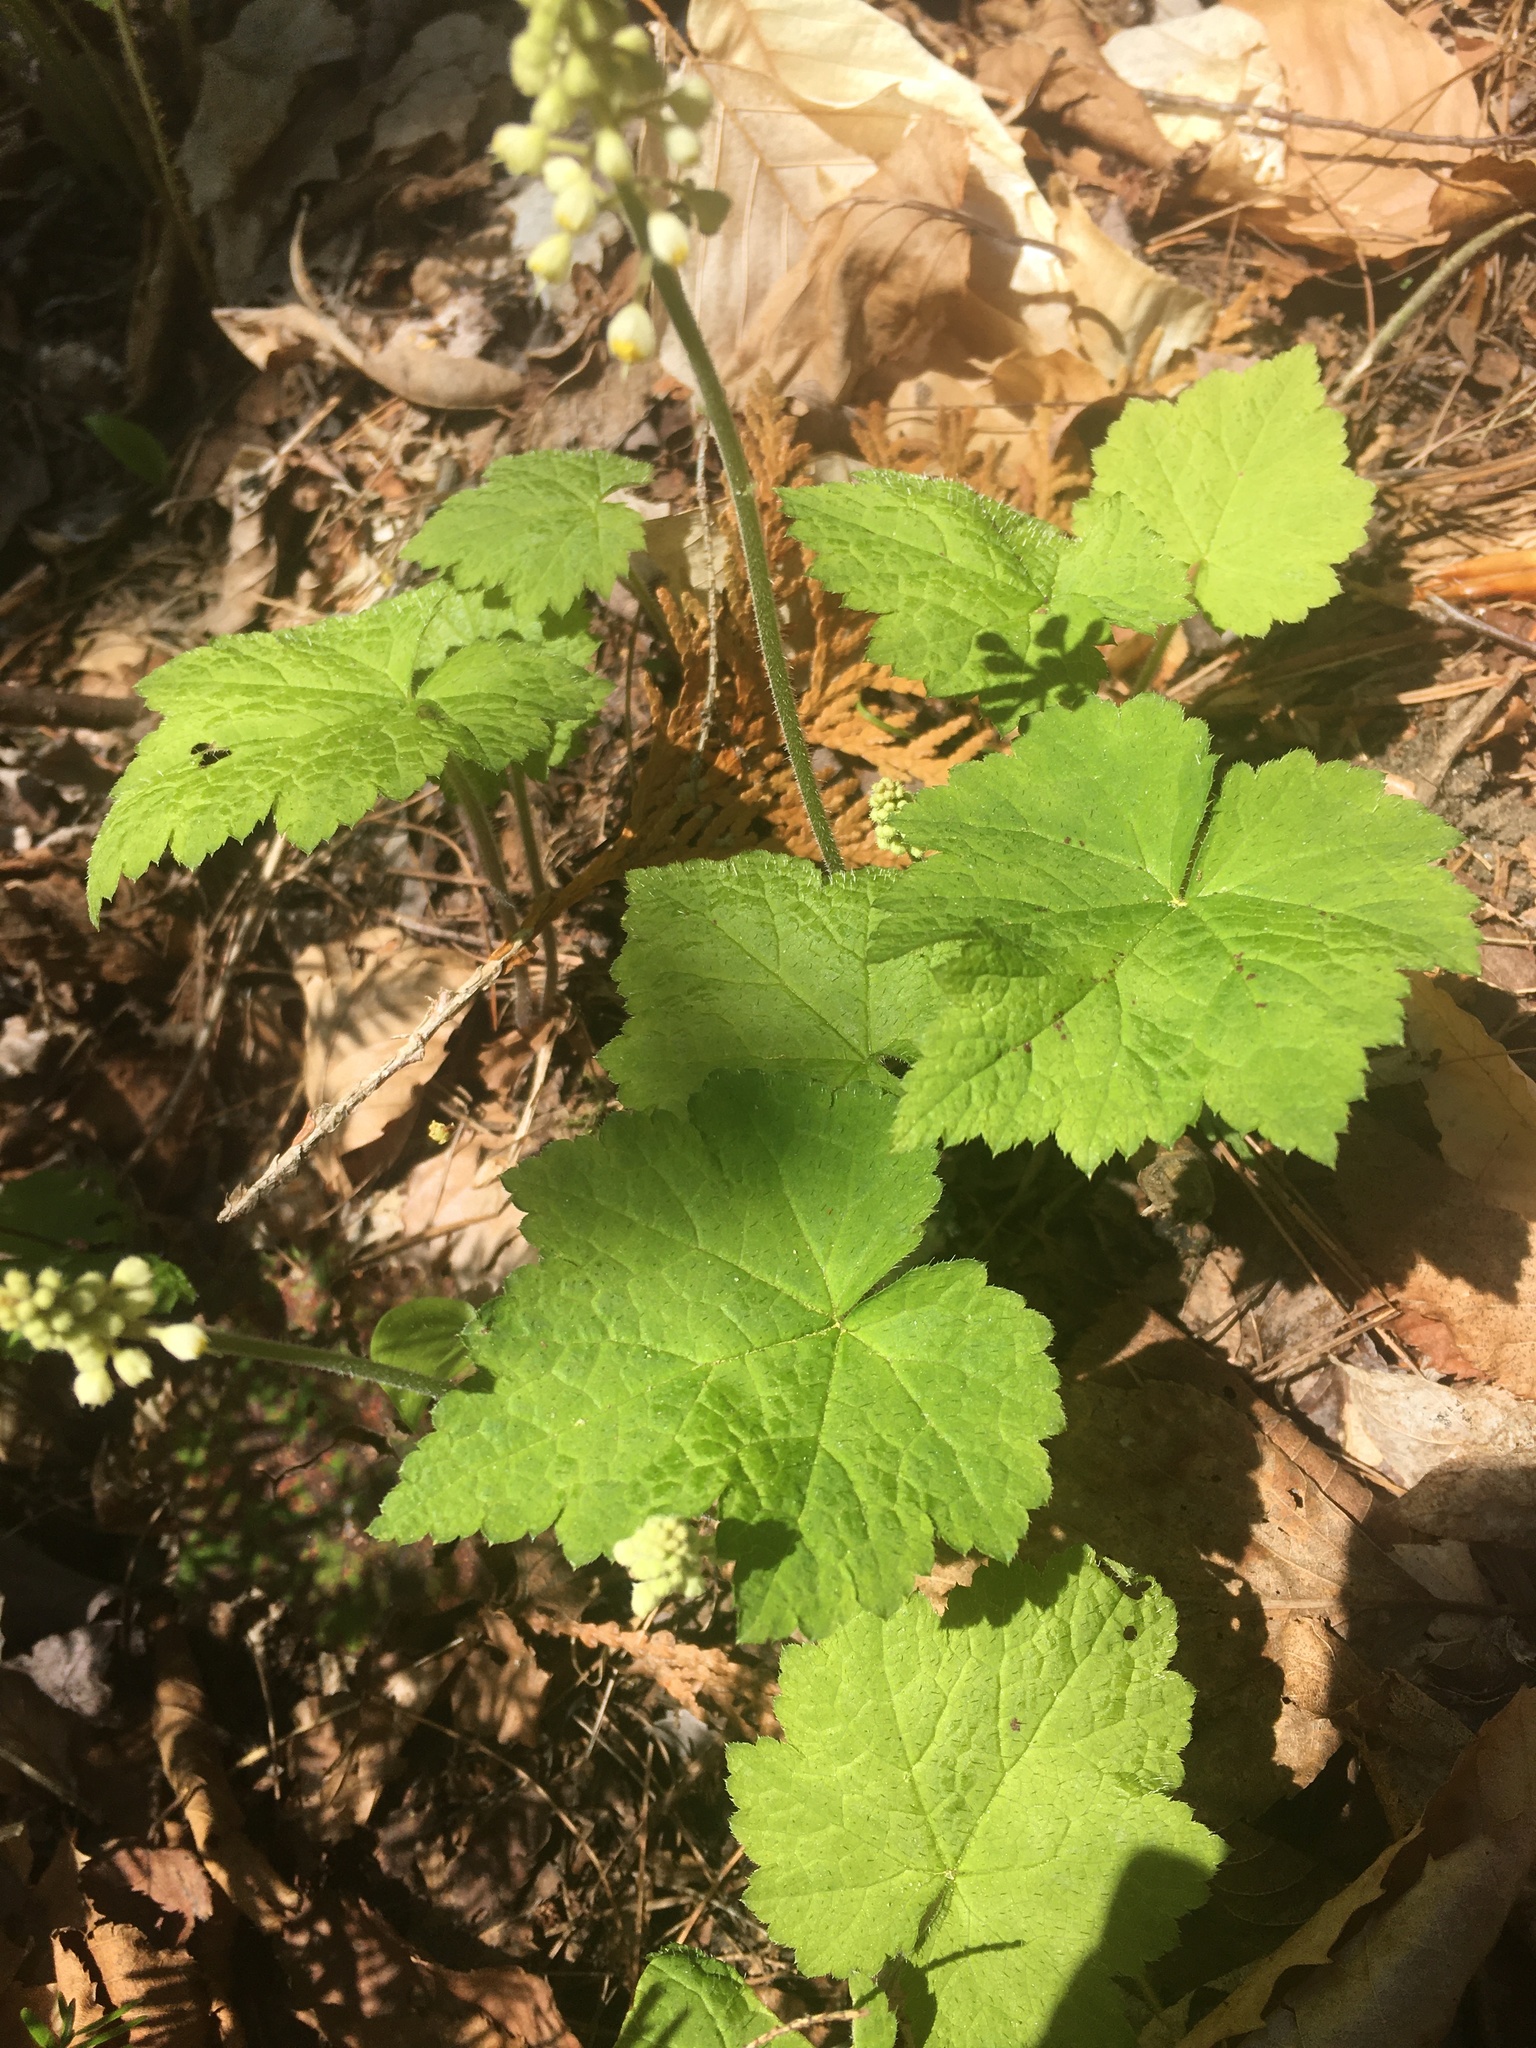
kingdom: Plantae
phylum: Tracheophyta
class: Magnoliopsida
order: Saxifragales
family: Saxifragaceae
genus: Tiarella
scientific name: Tiarella stolonifera
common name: Stoloniferous foamflower
